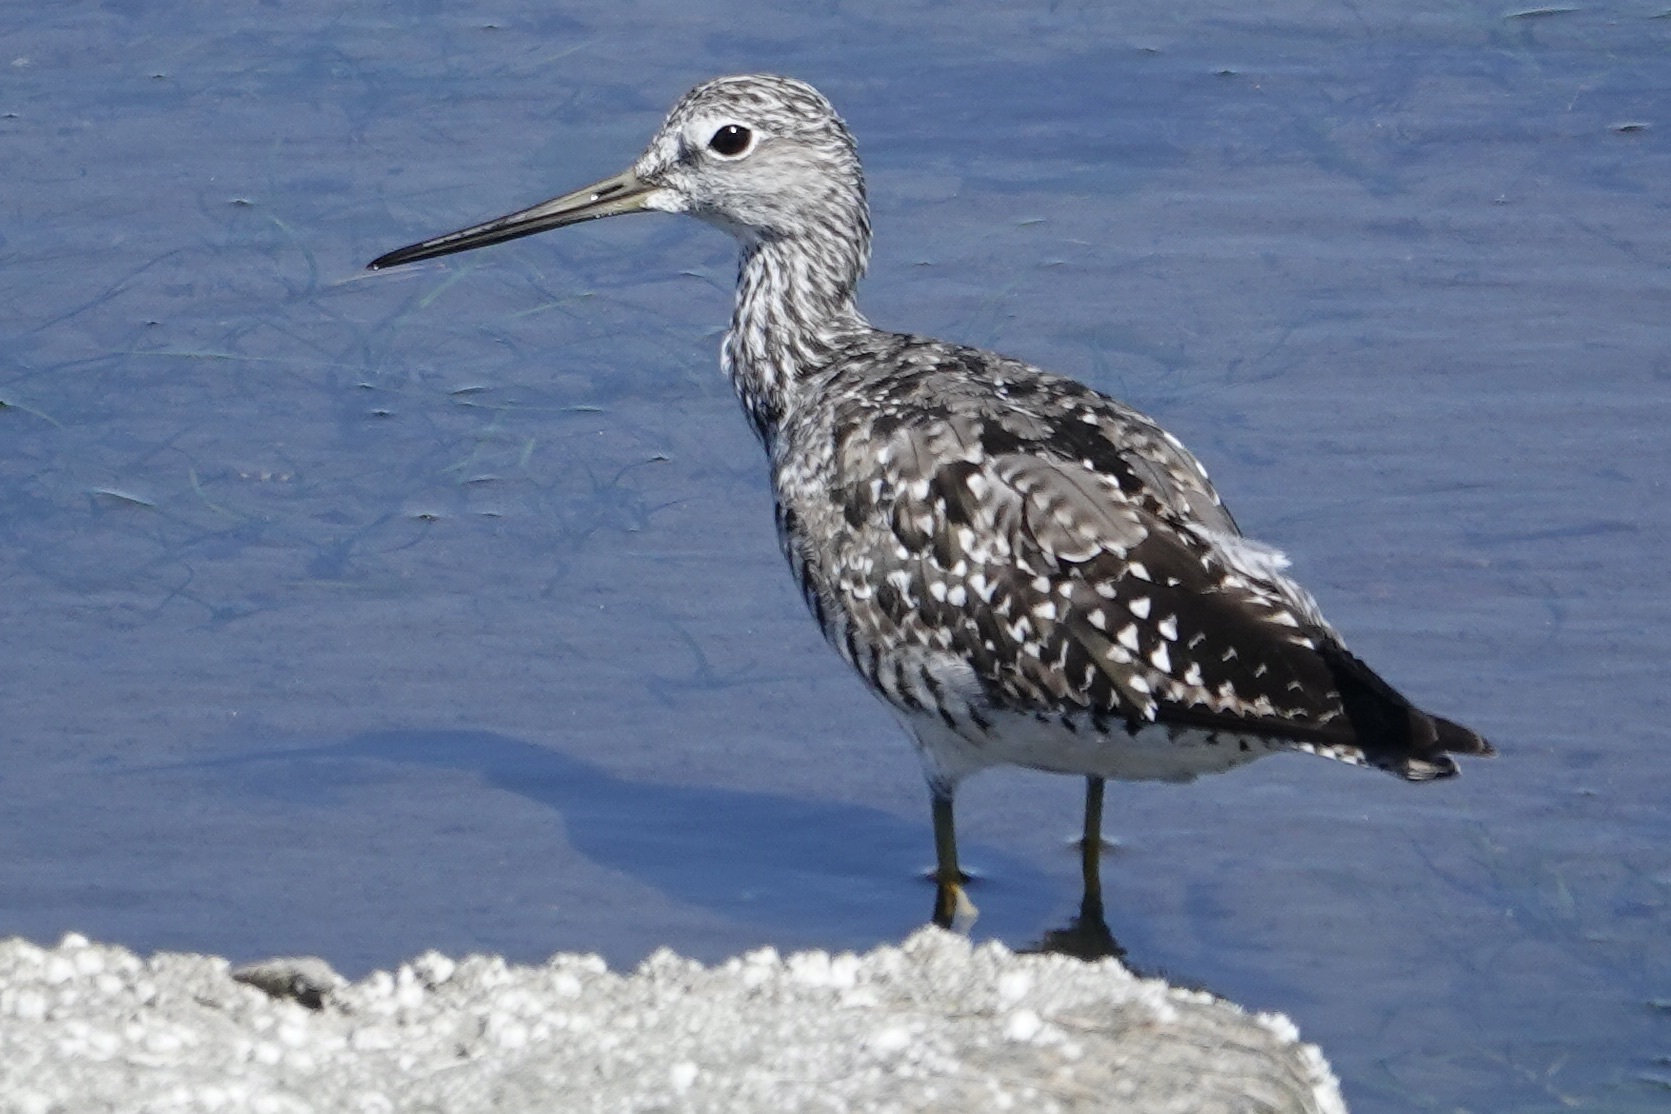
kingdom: Animalia
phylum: Chordata
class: Aves
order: Charadriiformes
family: Scolopacidae
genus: Tringa
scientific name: Tringa melanoleuca
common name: Greater yellowlegs
